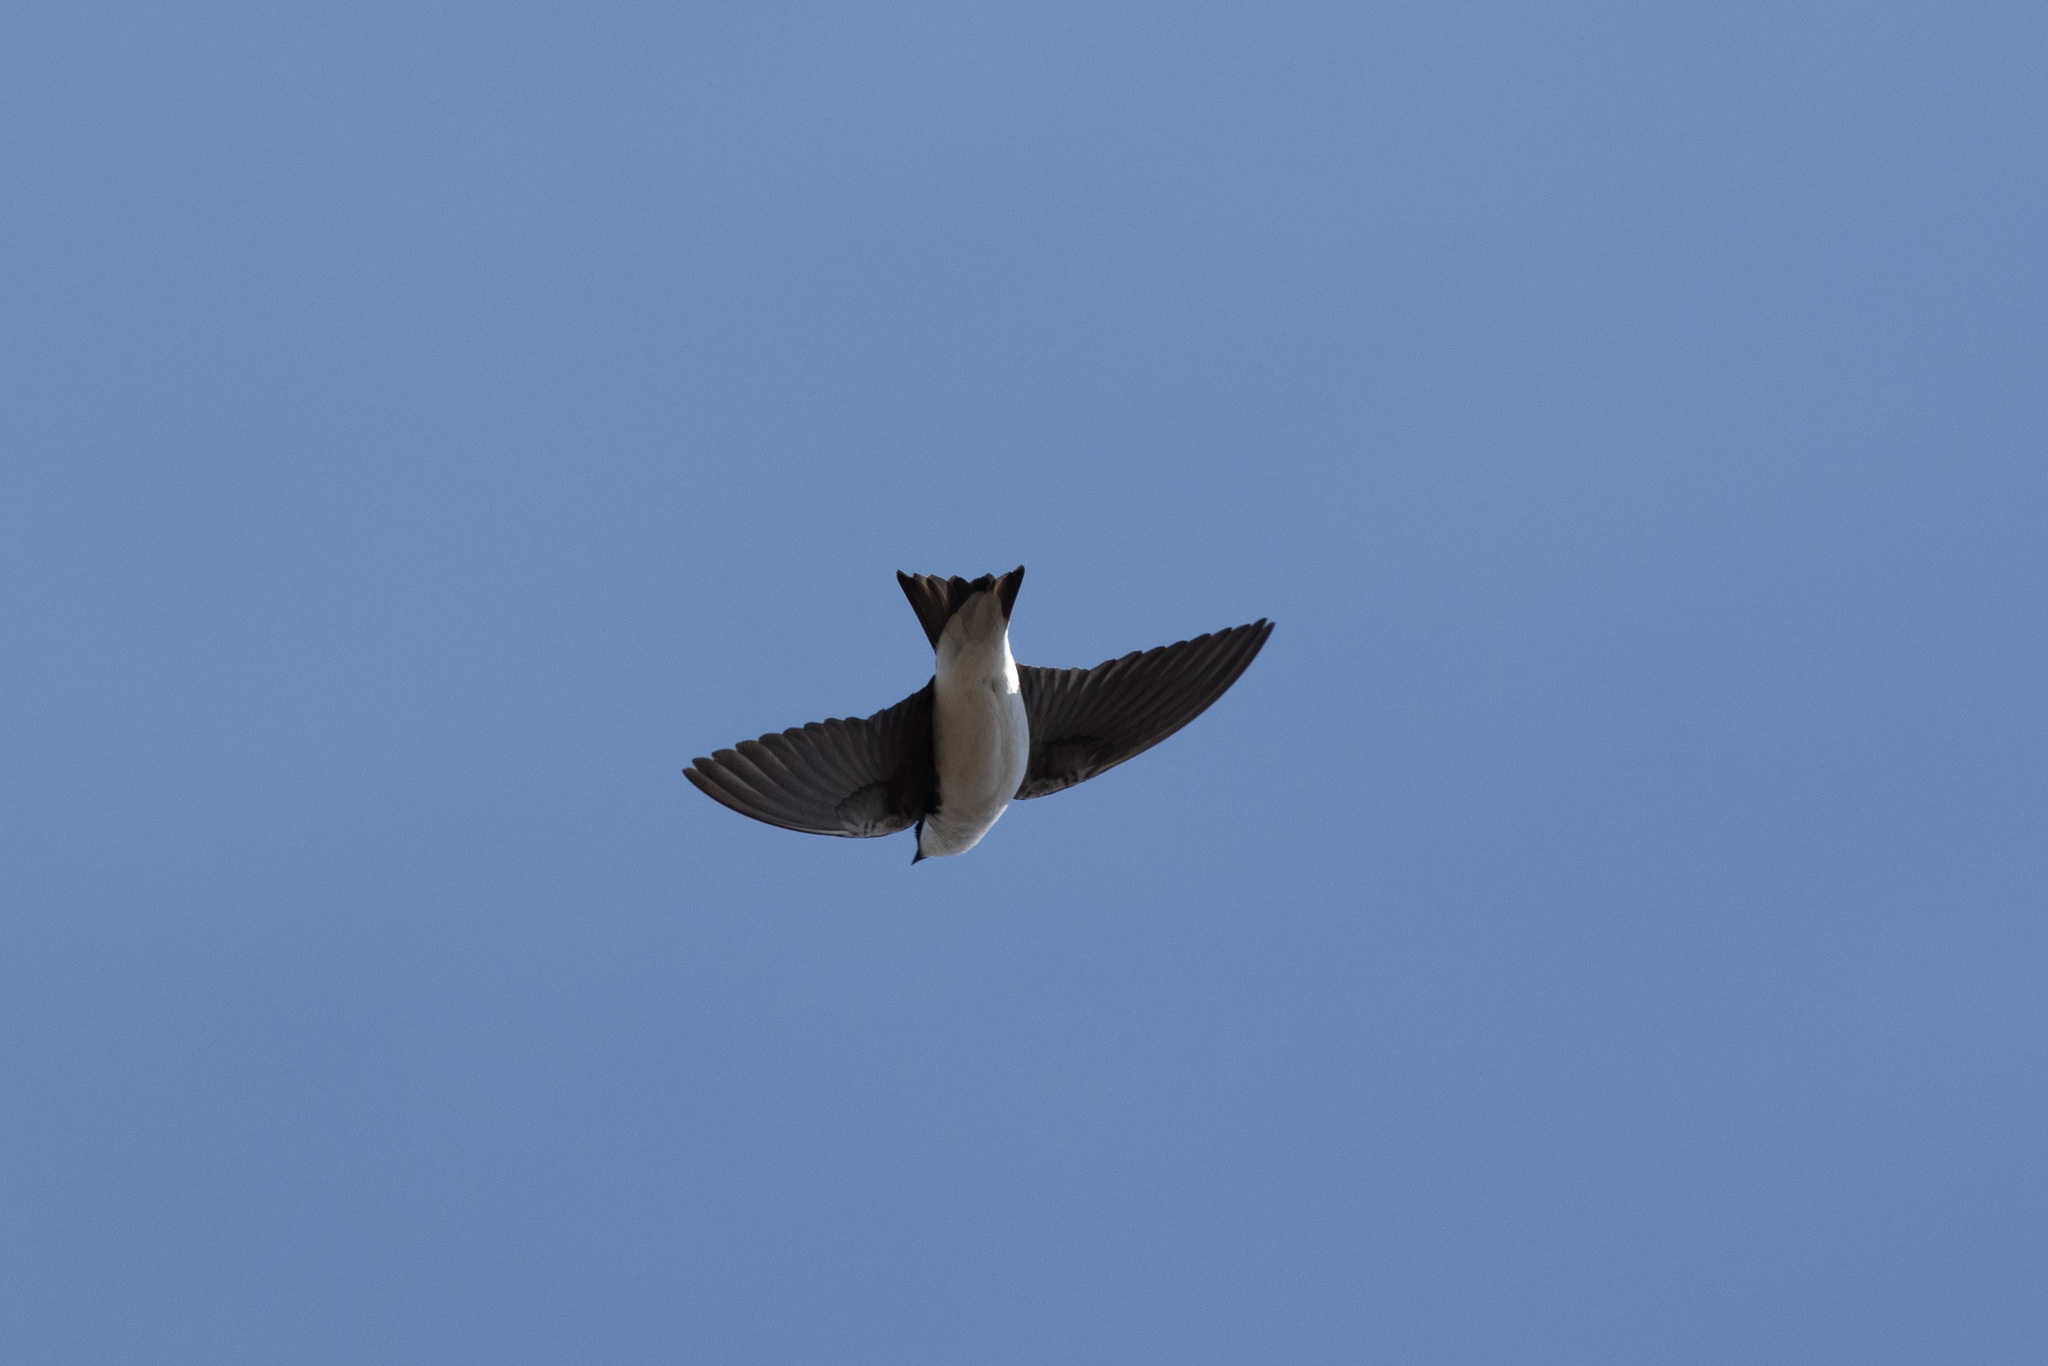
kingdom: Animalia
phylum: Chordata
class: Aves
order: Passeriformes
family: Hirundinidae
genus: Tachycineta
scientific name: Tachycineta bicolor
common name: Tree swallow
